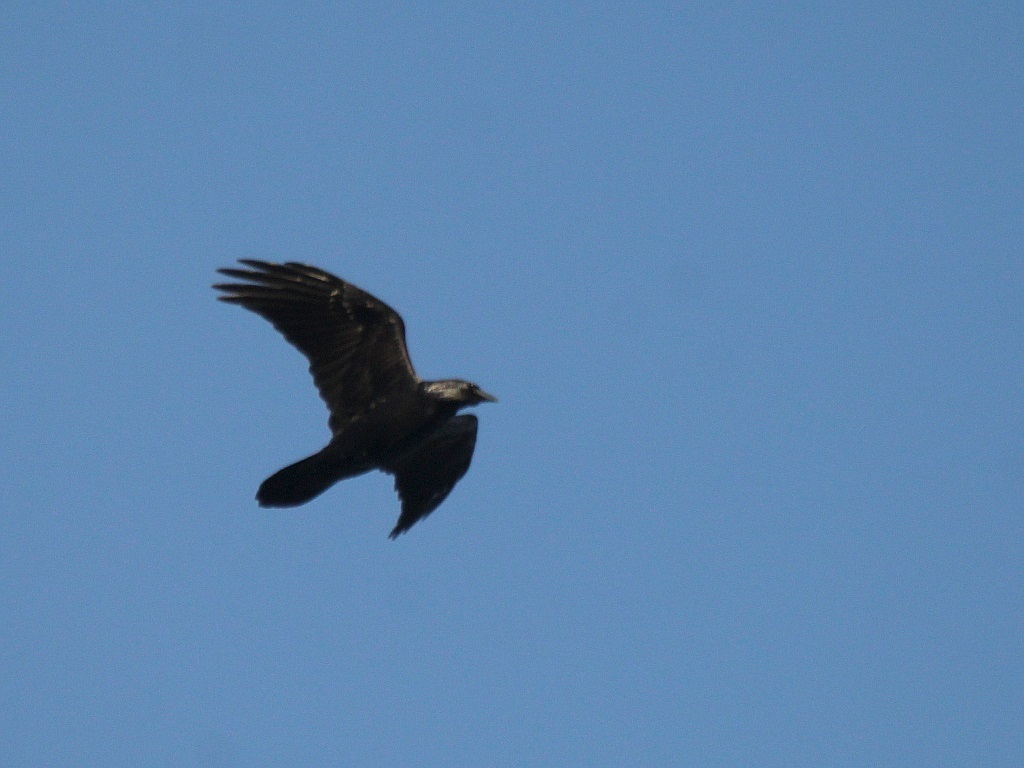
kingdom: Animalia
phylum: Chordata
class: Aves
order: Passeriformes
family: Corvidae
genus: Corvus
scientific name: Corvus corax
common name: Common raven
